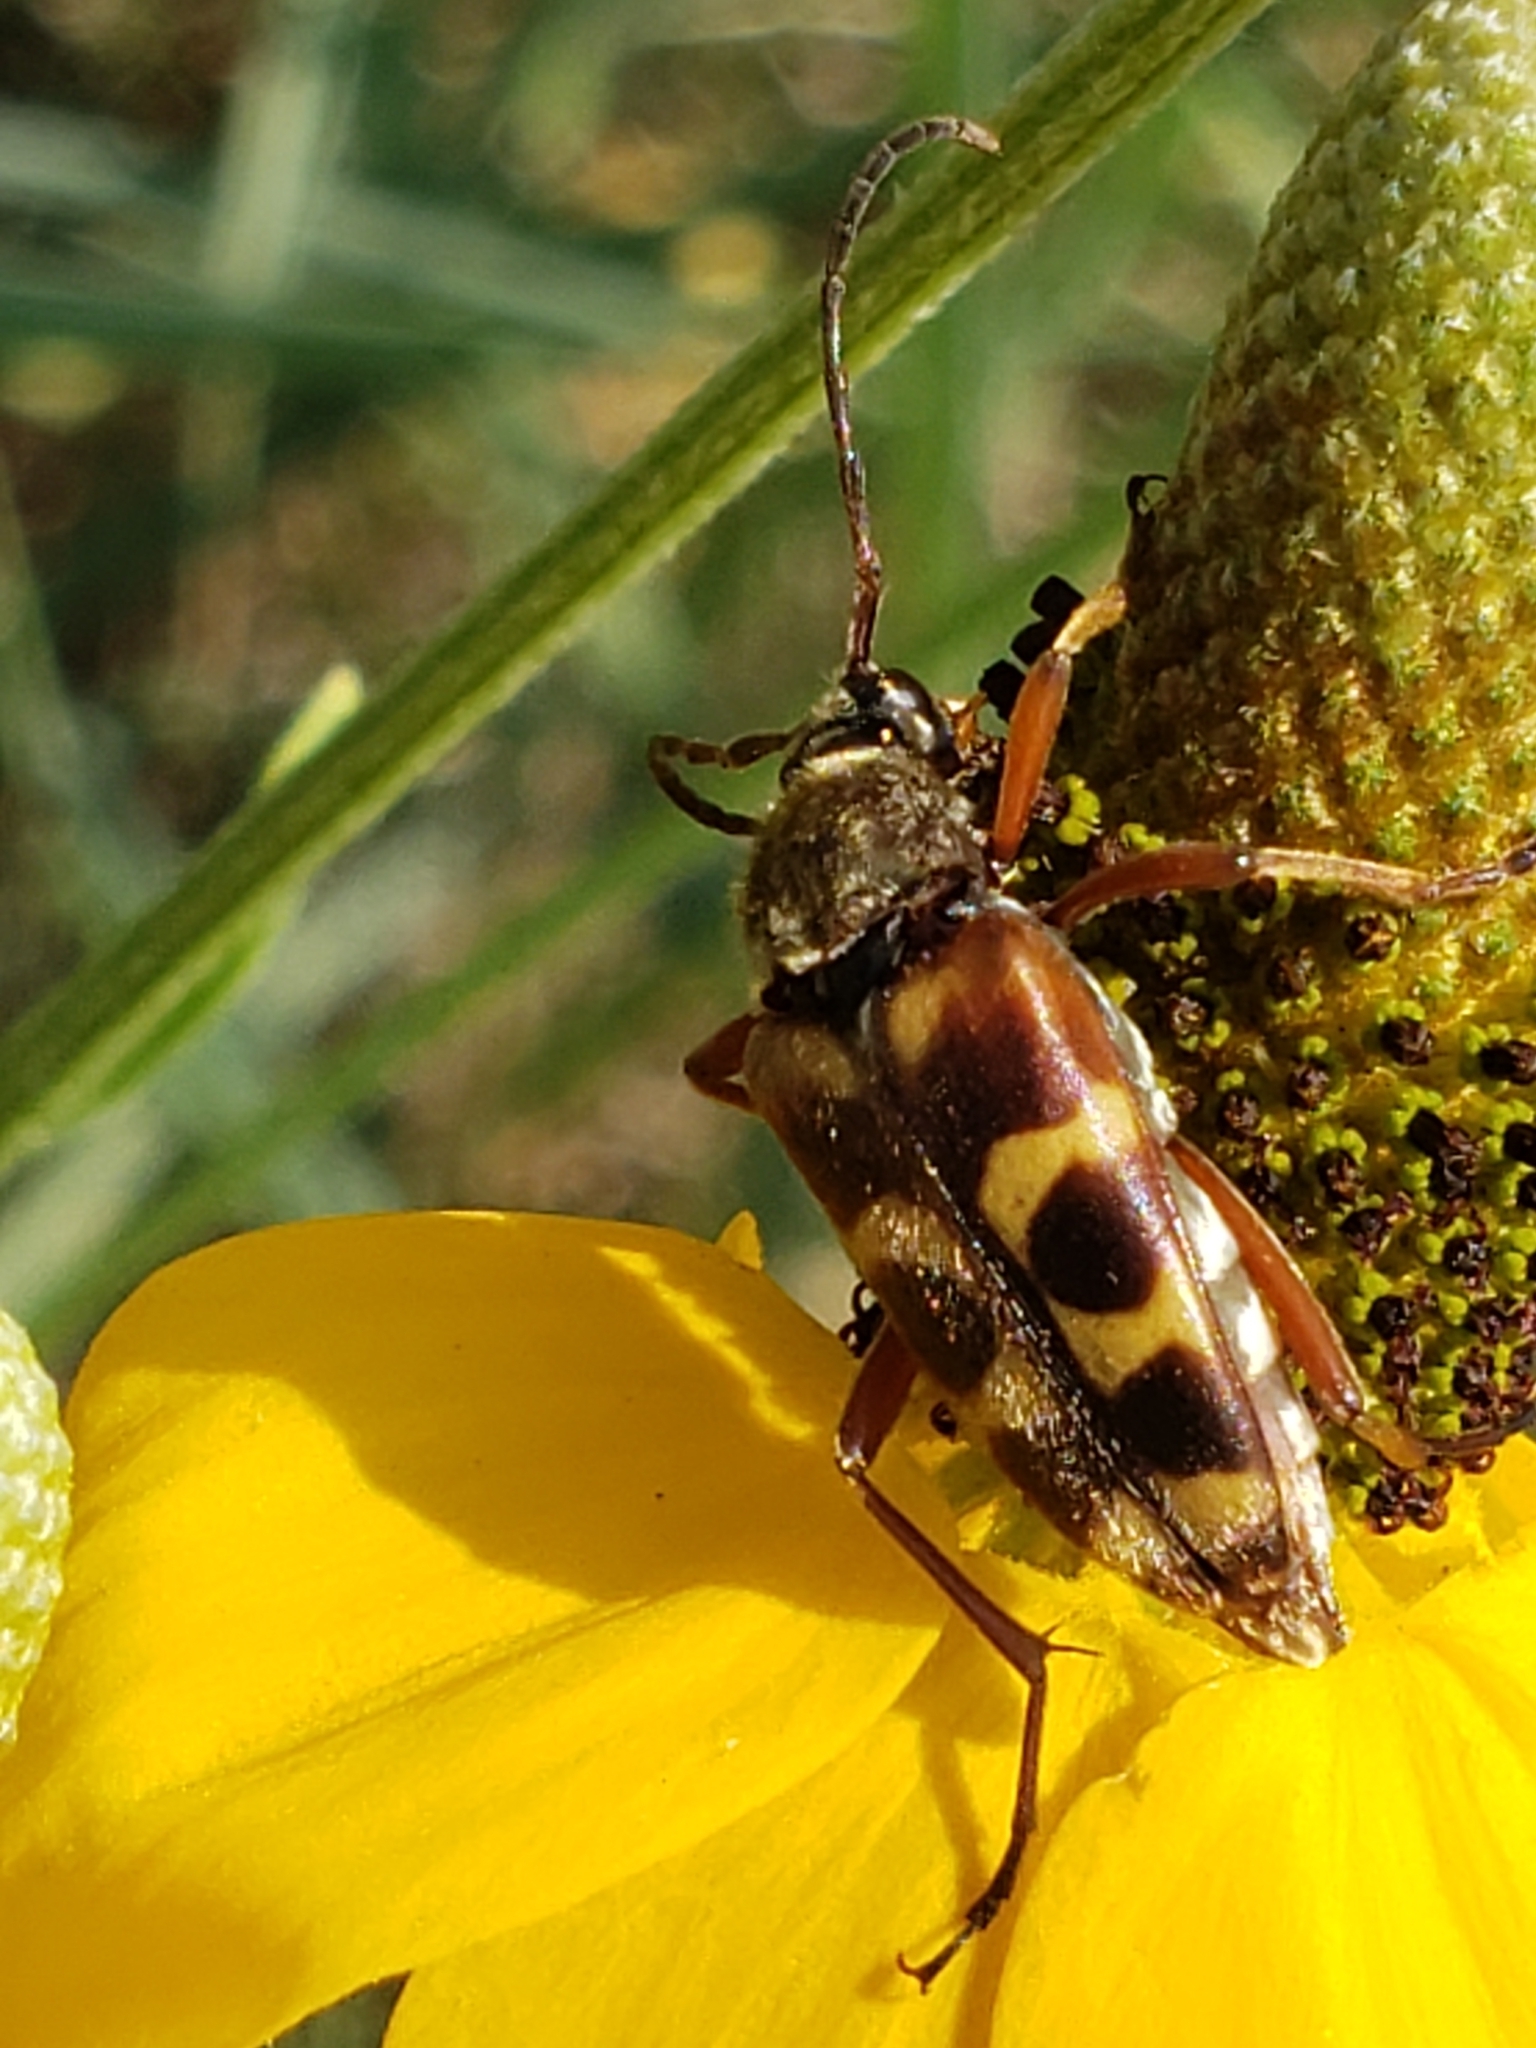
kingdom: Animalia
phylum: Arthropoda
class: Insecta
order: Coleoptera
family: Cerambycidae
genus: Typocerus
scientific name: Typocerus octonotatus
